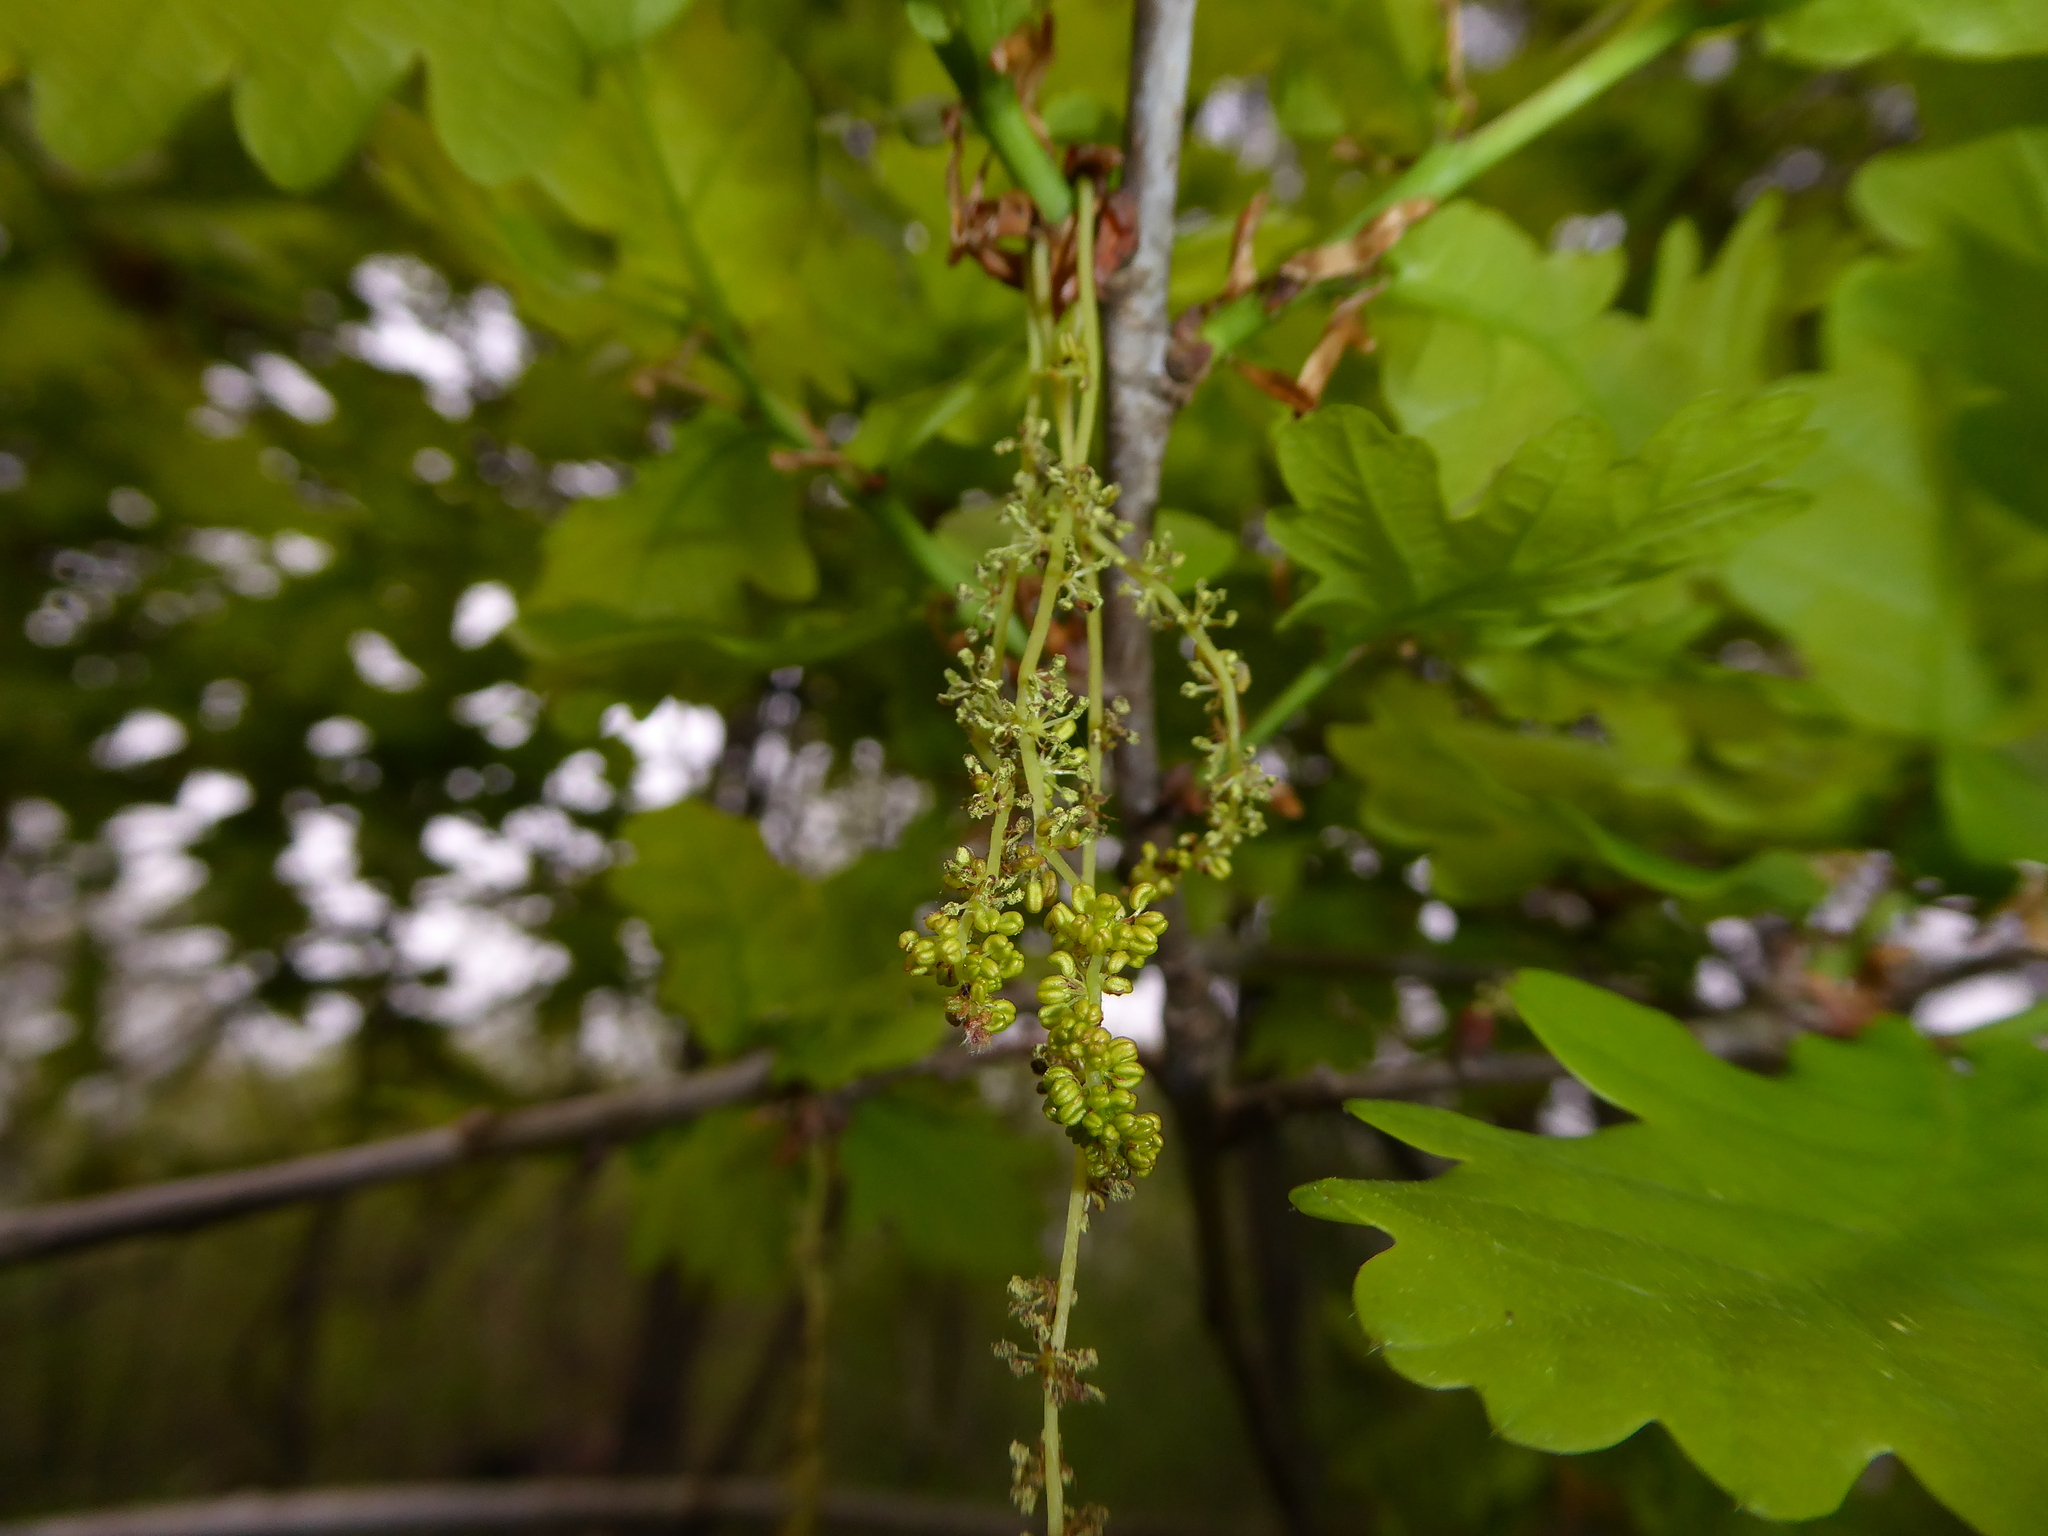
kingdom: Plantae
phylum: Tracheophyta
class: Magnoliopsida
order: Fagales
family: Fagaceae
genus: Quercus
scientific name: Quercus robur
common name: Pedunculate oak
